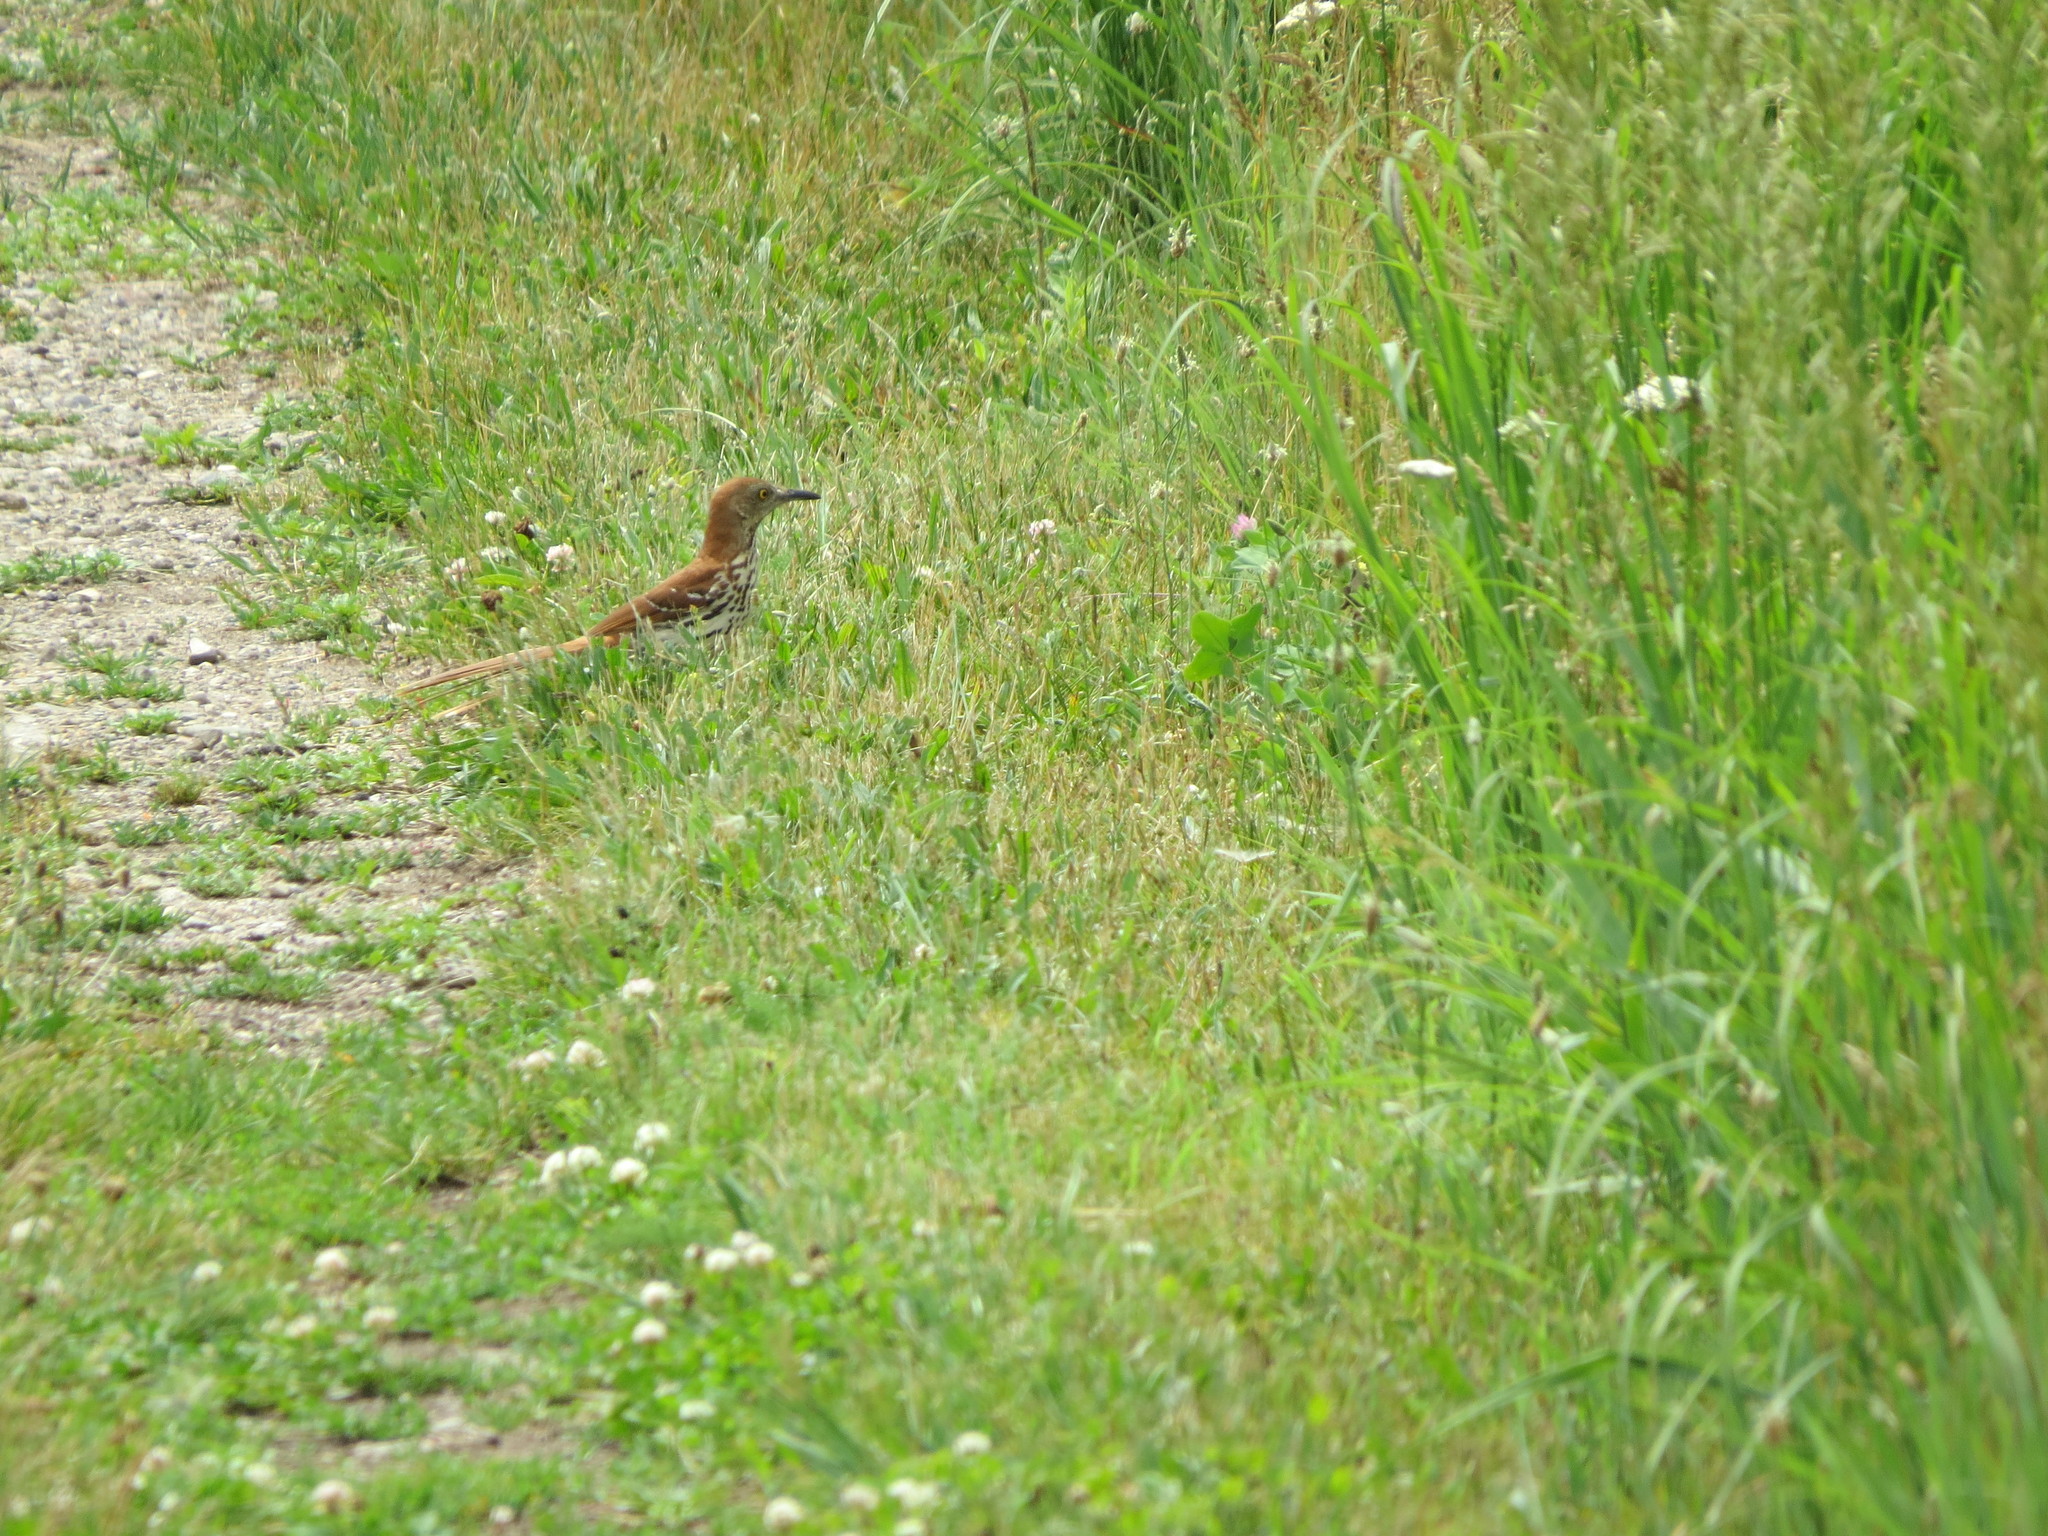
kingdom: Animalia
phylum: Chordata
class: Aves
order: Passeriformes
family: Mimidae
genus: Toxostoma
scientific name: Toxostoma rufum
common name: Brown thrasher
